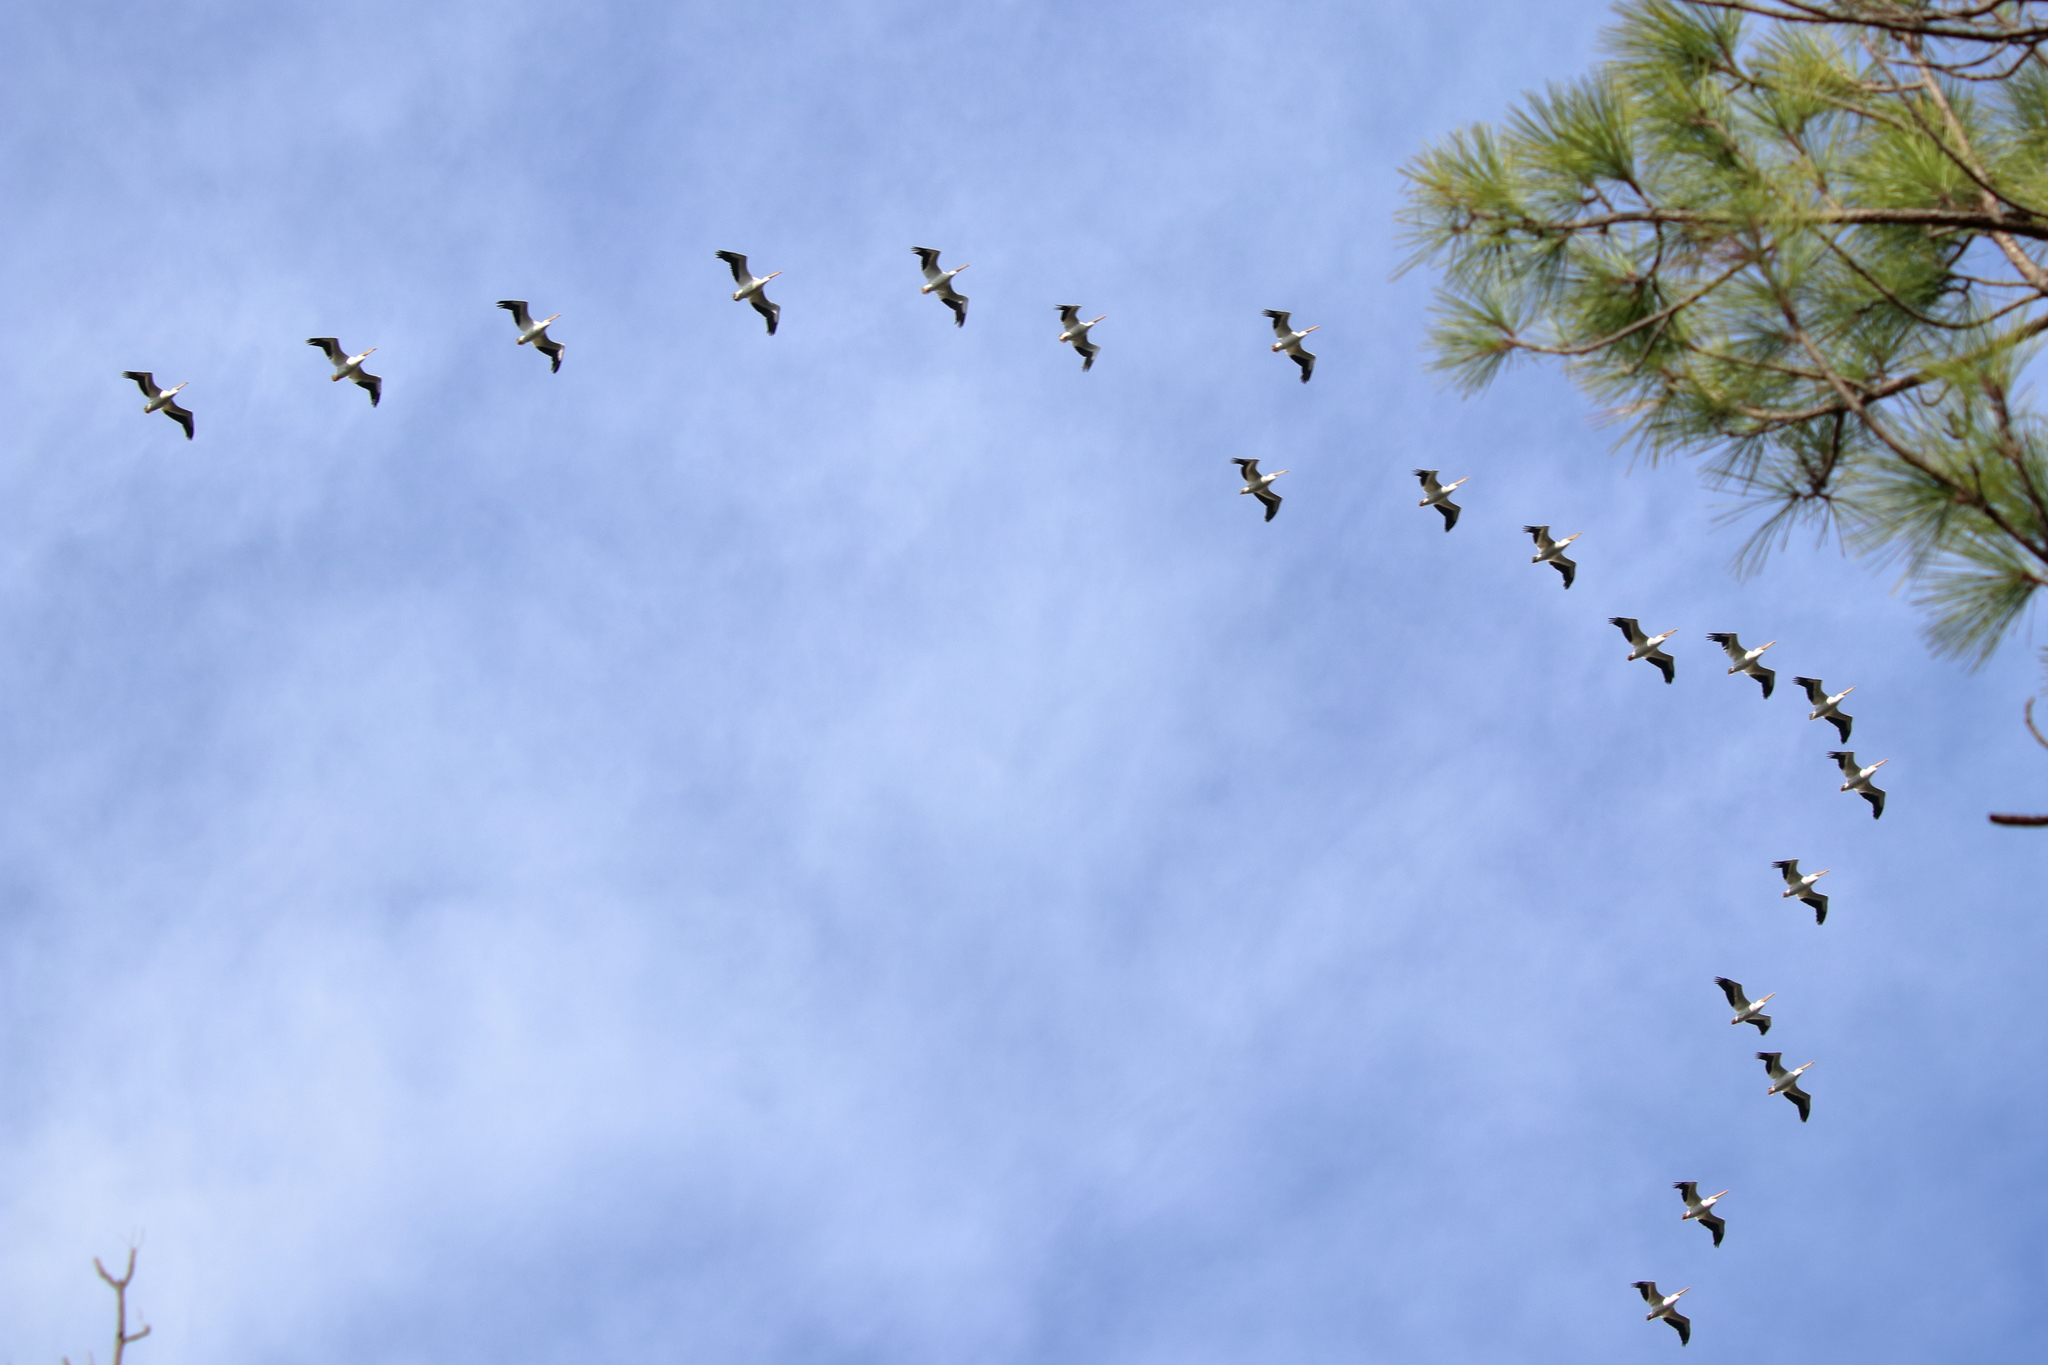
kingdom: Animalia
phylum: Chordata
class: Aves
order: Pelecaniformes
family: Pelecanidae
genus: Pelecanus
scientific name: Pelecanus erythrorhynchos
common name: American white pelican
